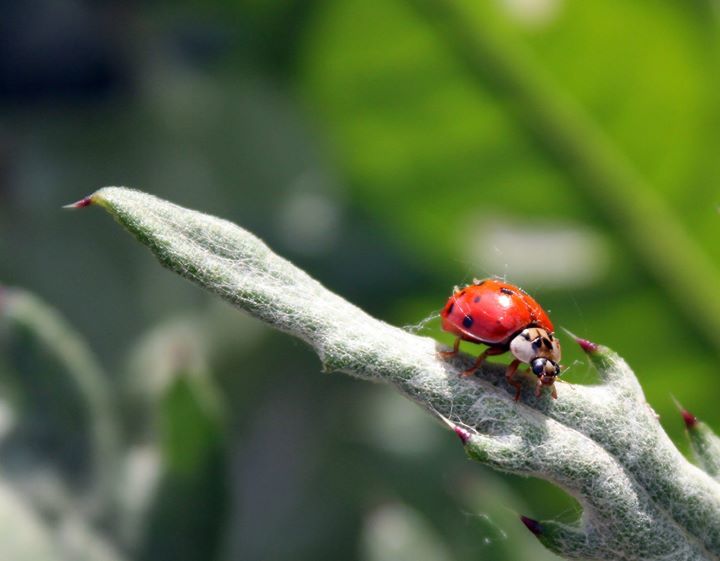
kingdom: Animalia
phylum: Arthropoda
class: Insecta
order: Coleoptera
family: Coccinellidae
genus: Harmonia
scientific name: Harmonia axyridis
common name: Harlequin ladybird
